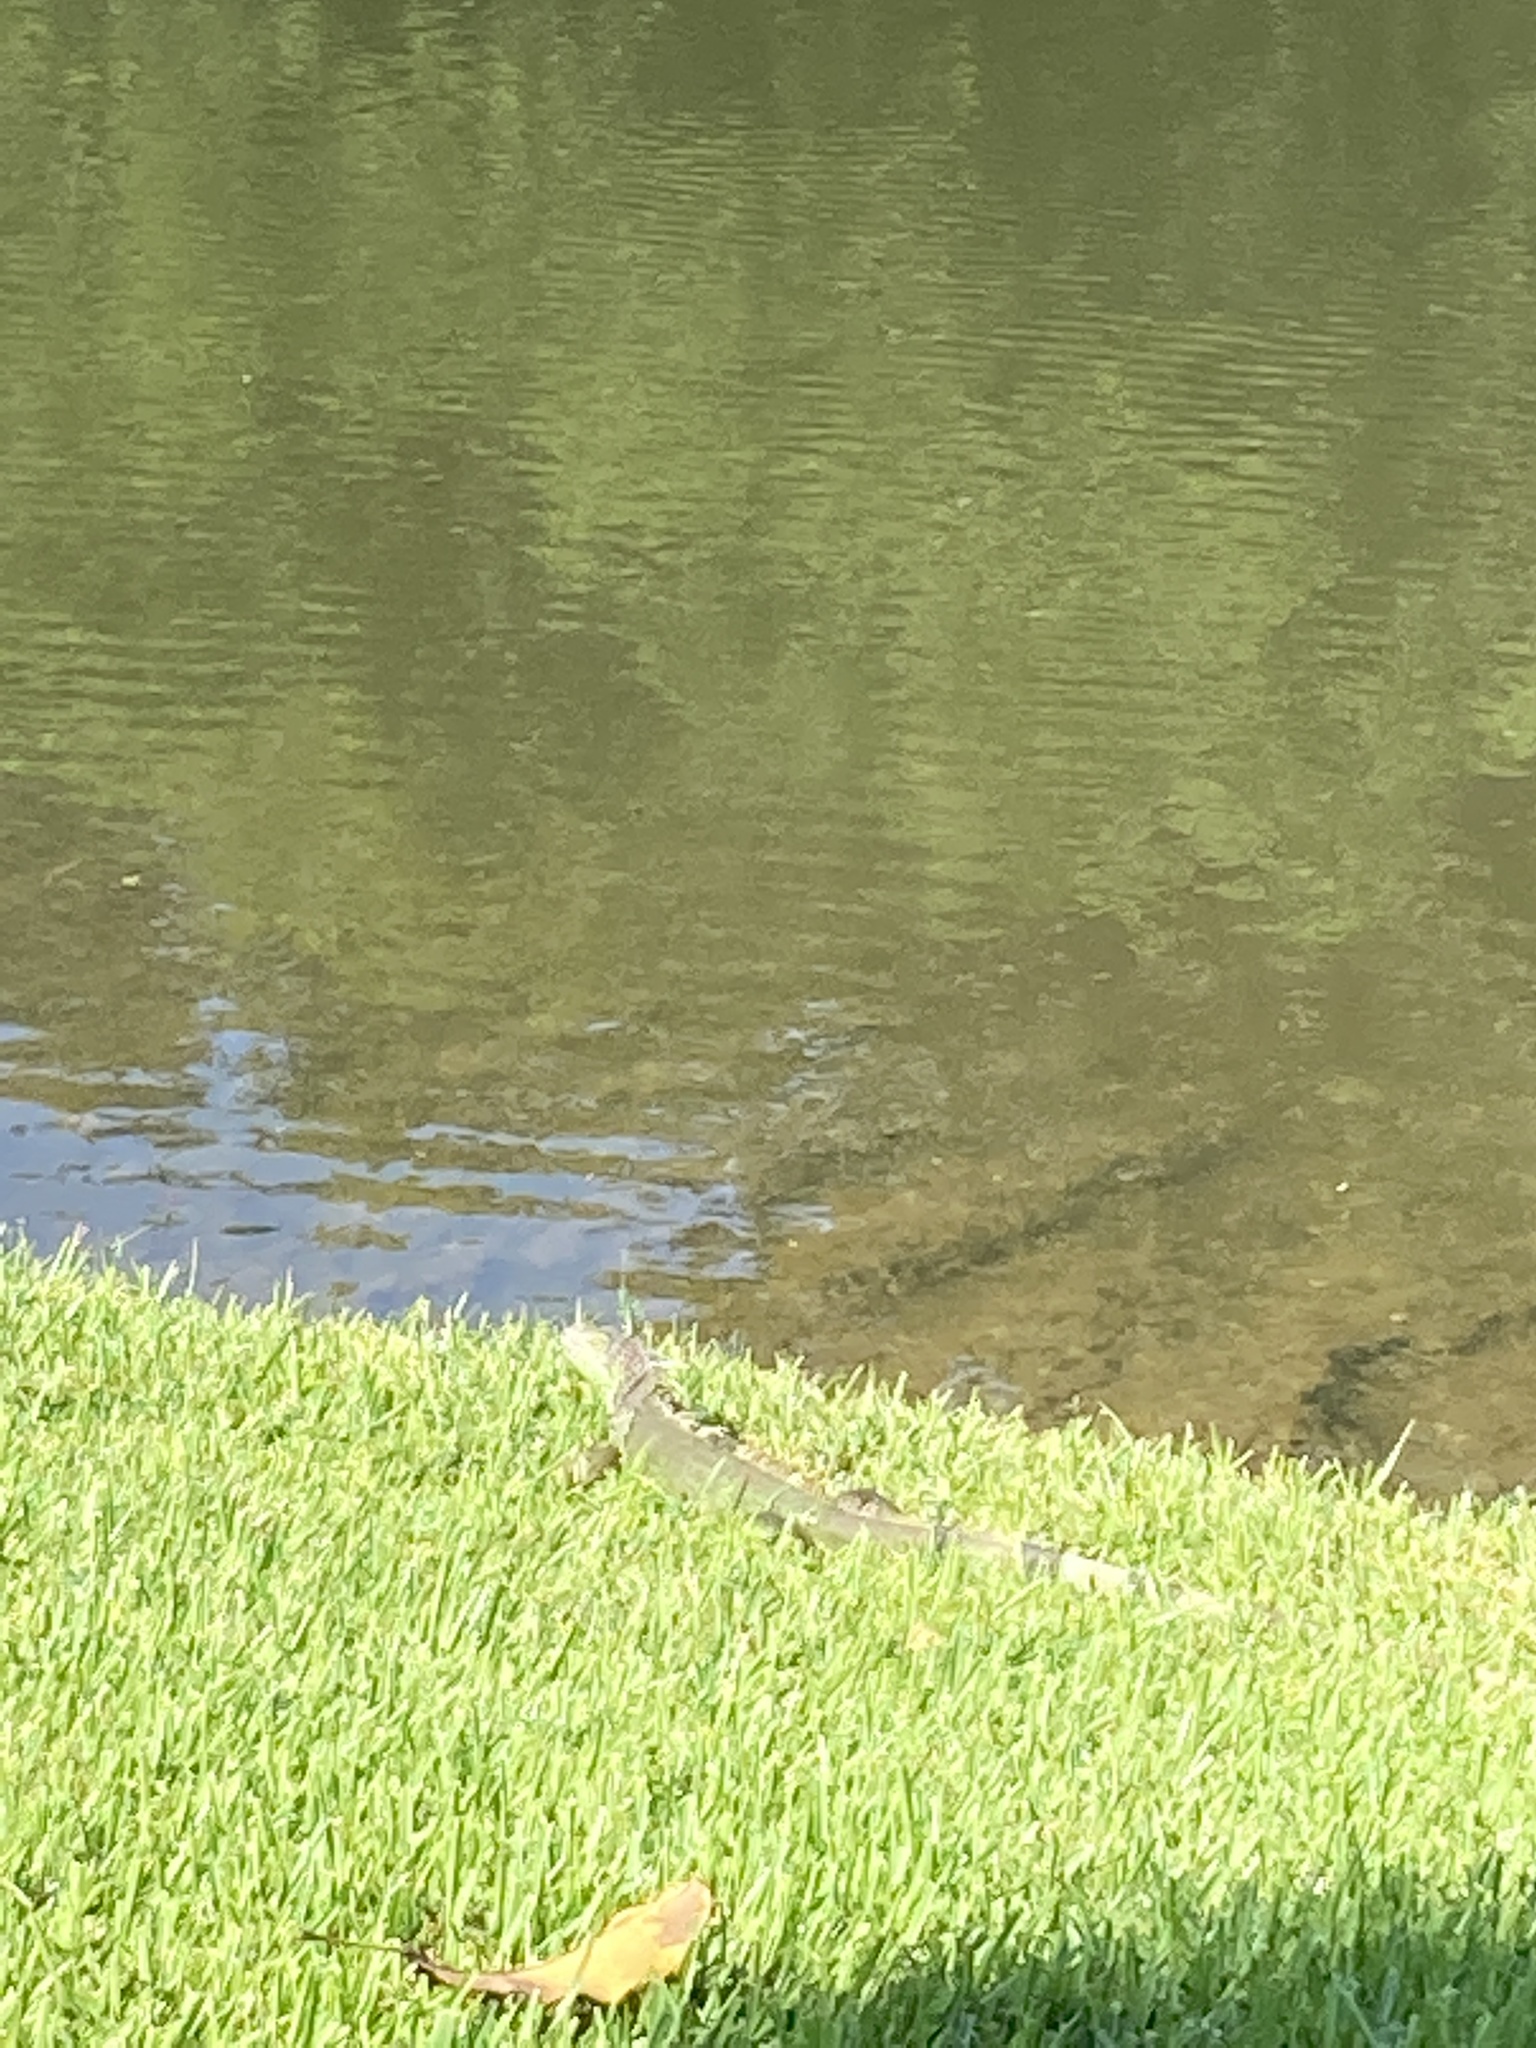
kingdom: Animalia
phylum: Chordata
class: Squamata
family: Iguanidae
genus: Iguana
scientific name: Iguana iguana
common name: Green iguana
